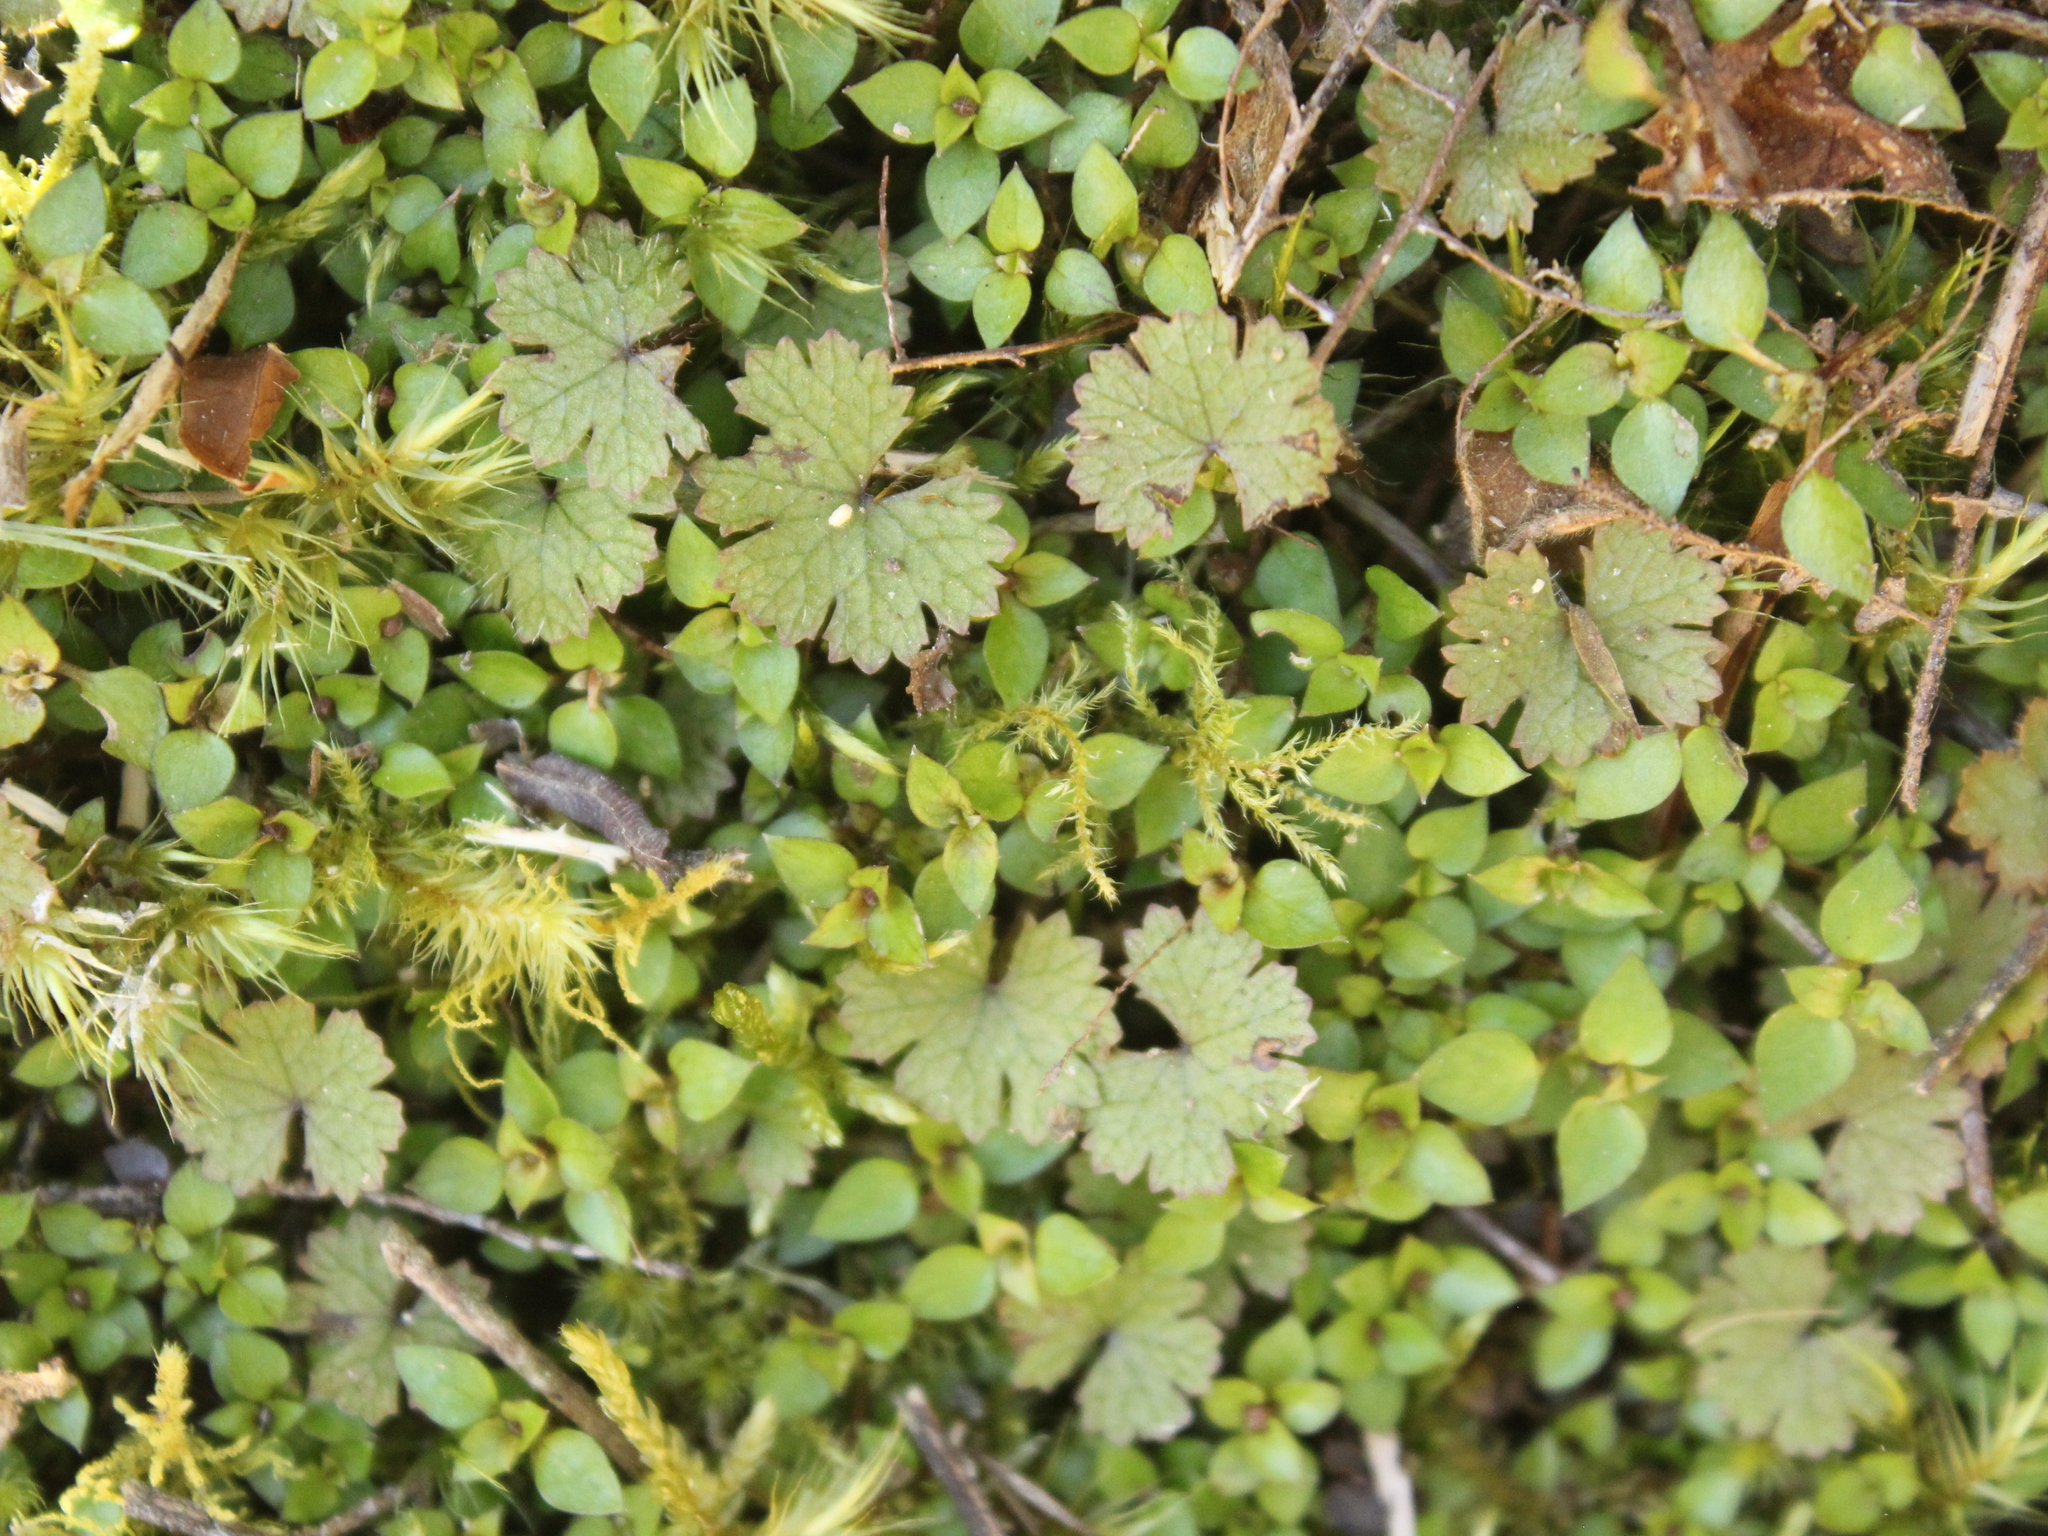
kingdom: Plantae
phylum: Tracheophyta
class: Magnoliopsida
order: Apiales
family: Araliaceae
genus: Hydrocotyle
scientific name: Hydrocotyle moschata
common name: Hairy pennywort
